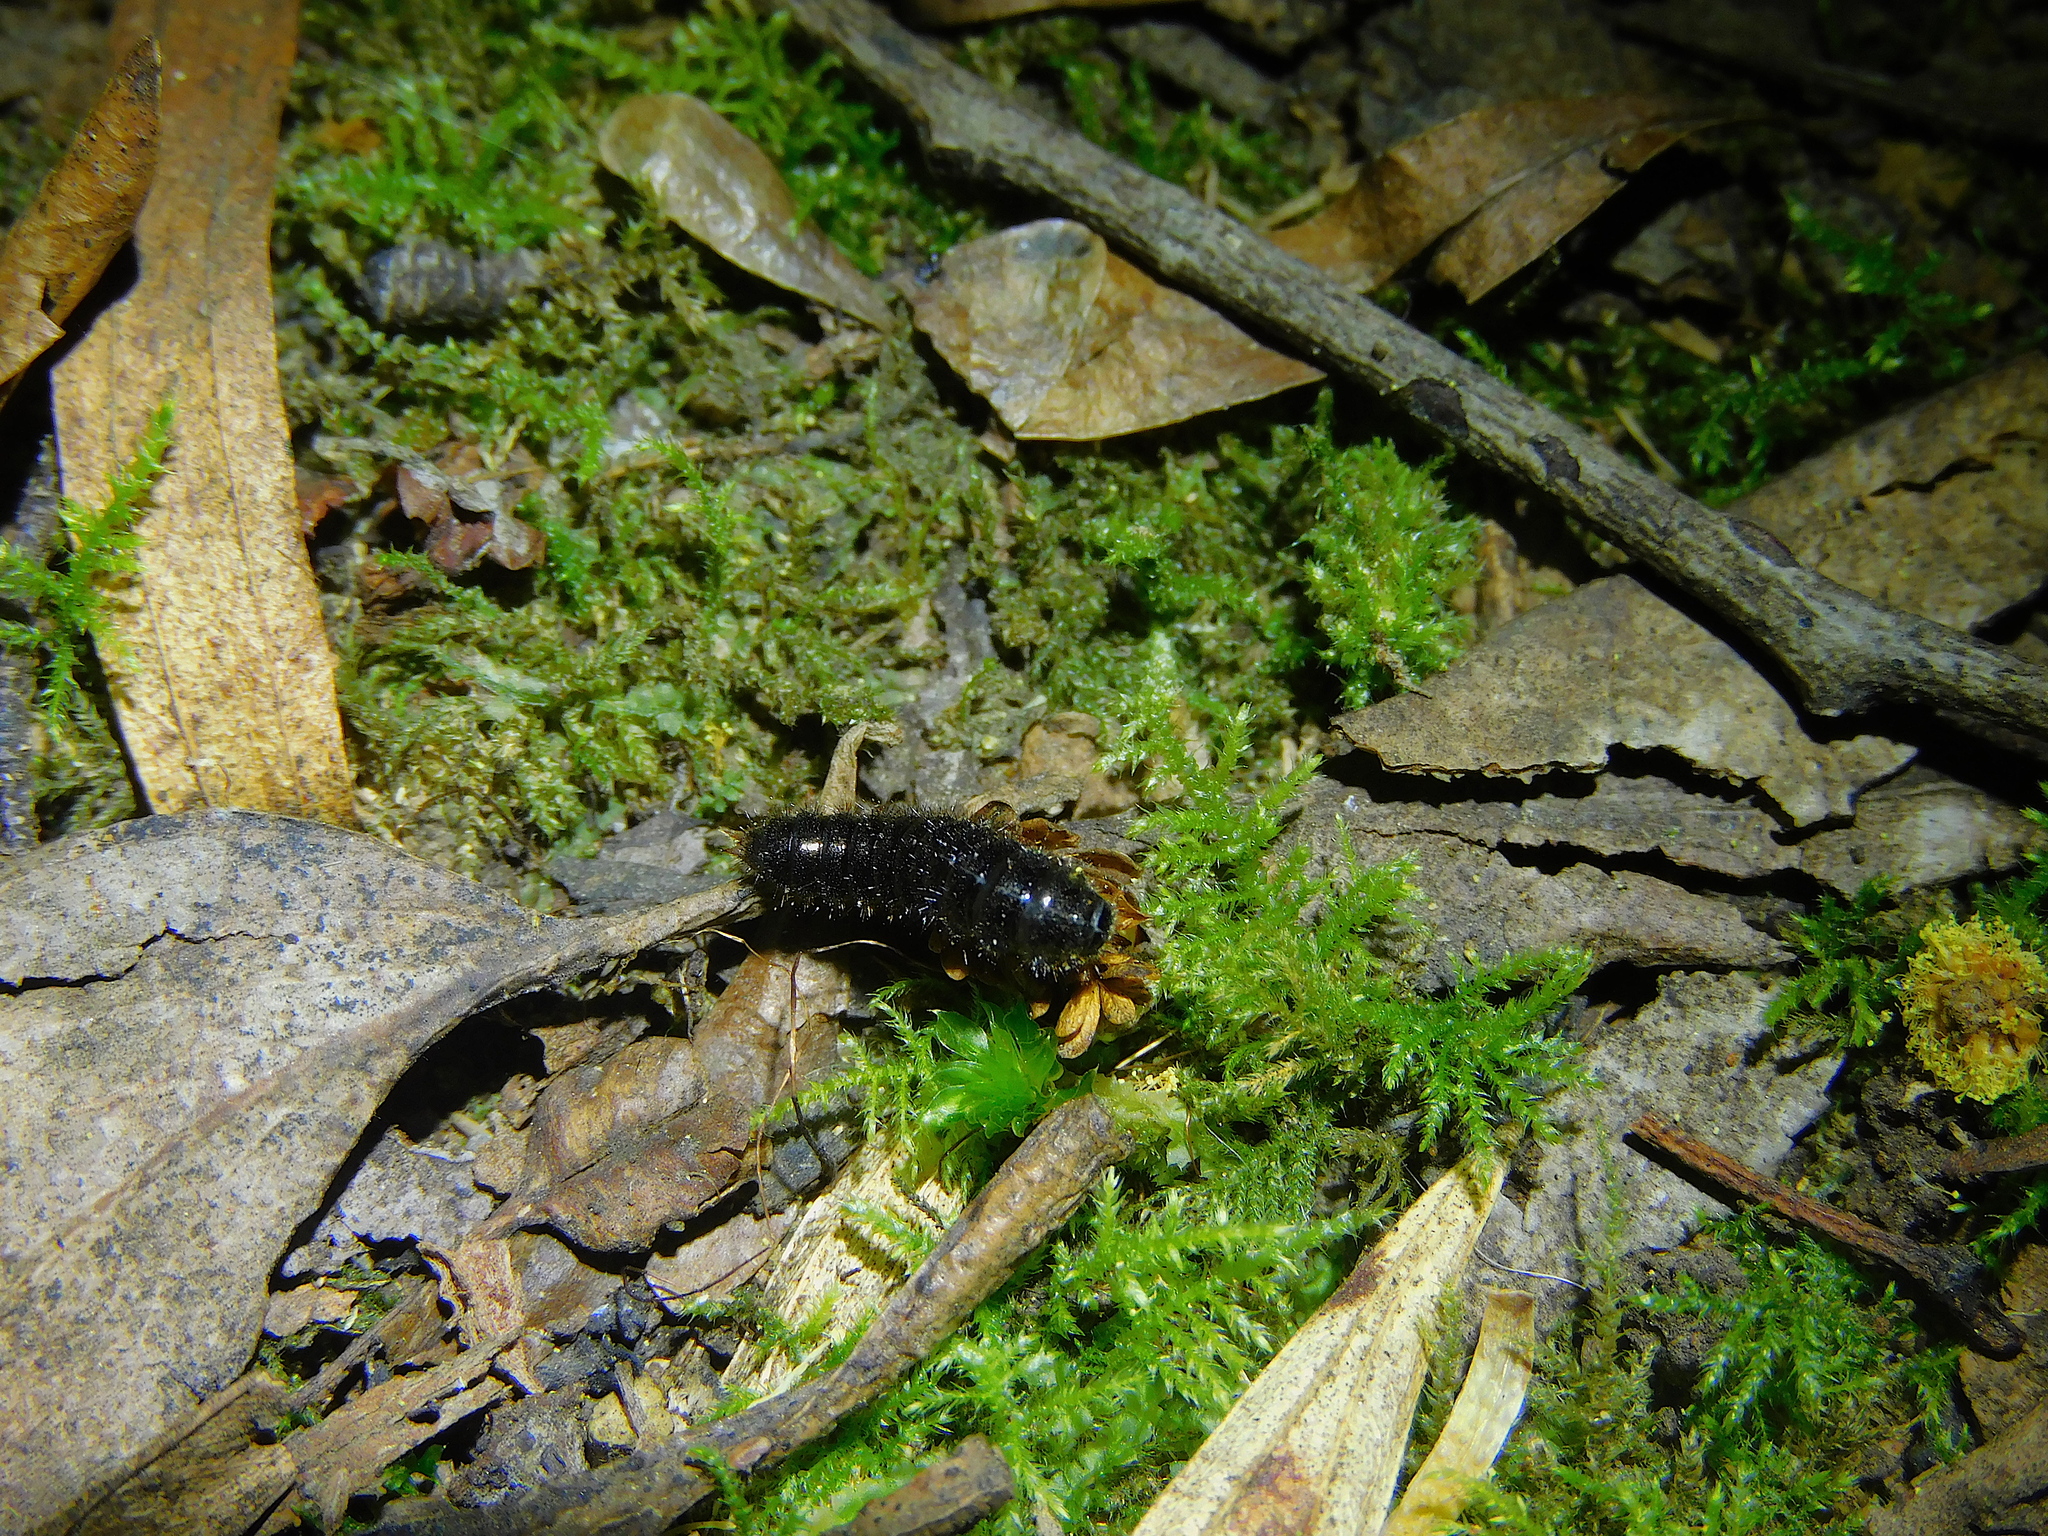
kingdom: Animalia
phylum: Arthropoda
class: Insecta
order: Coleoptera
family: Tenebrionidae
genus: Ecnolagria
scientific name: Ecnolagria
